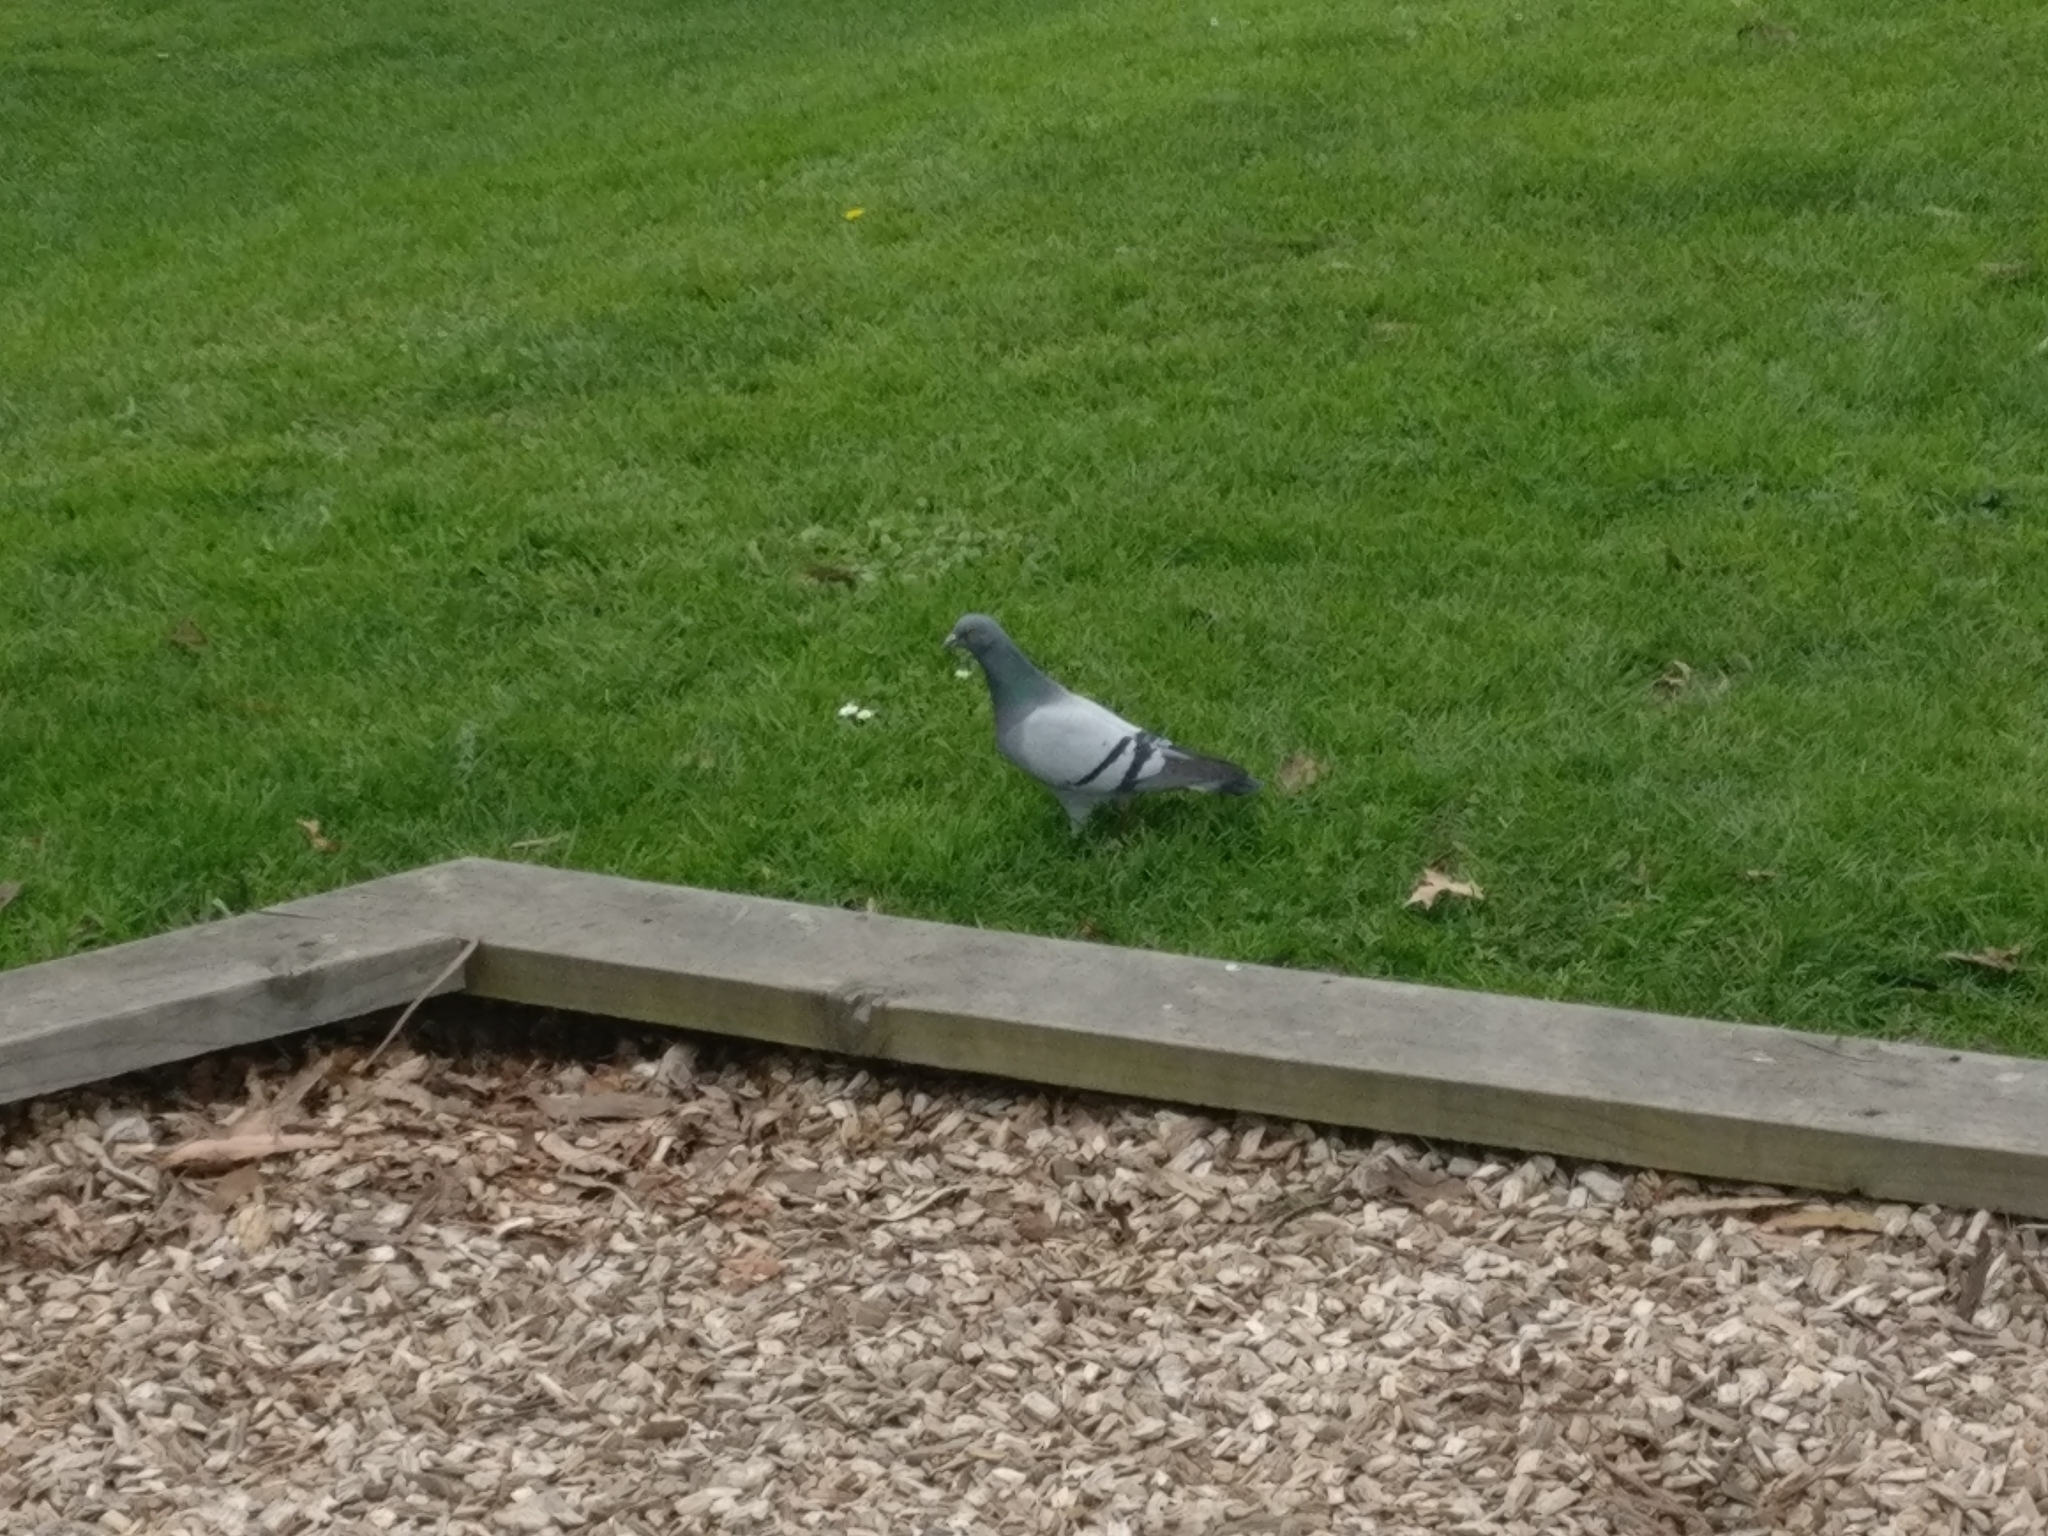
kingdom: Animalia
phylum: Chordata
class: Aves
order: Columbiformes
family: Columbidae
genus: Columba
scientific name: Columba livia
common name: Rock pigeon
